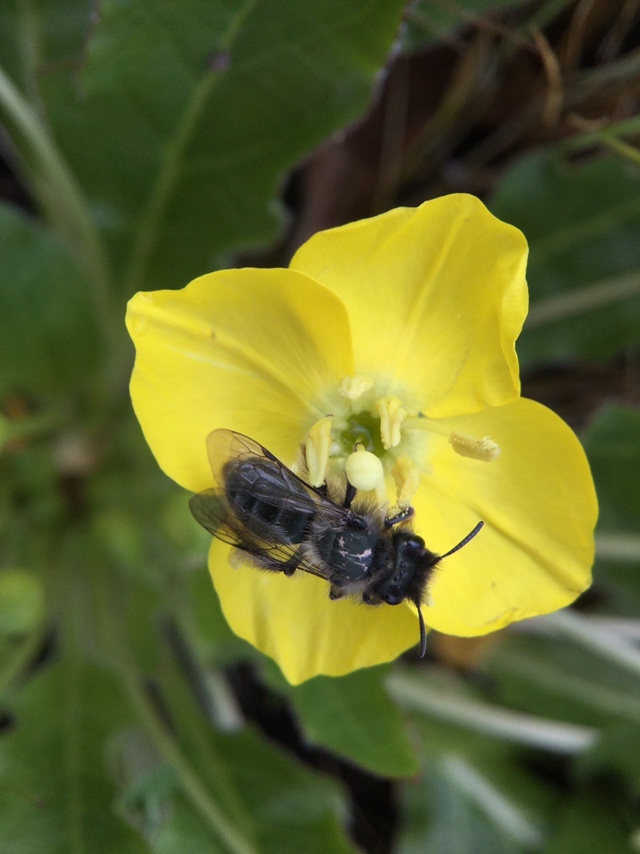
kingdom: Plantae
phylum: Tracheophyta
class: Magnoliopsida
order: Myrtales
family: Onagraceae
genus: Taraxia
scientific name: Taraxia ovata
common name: Goldeneggs
